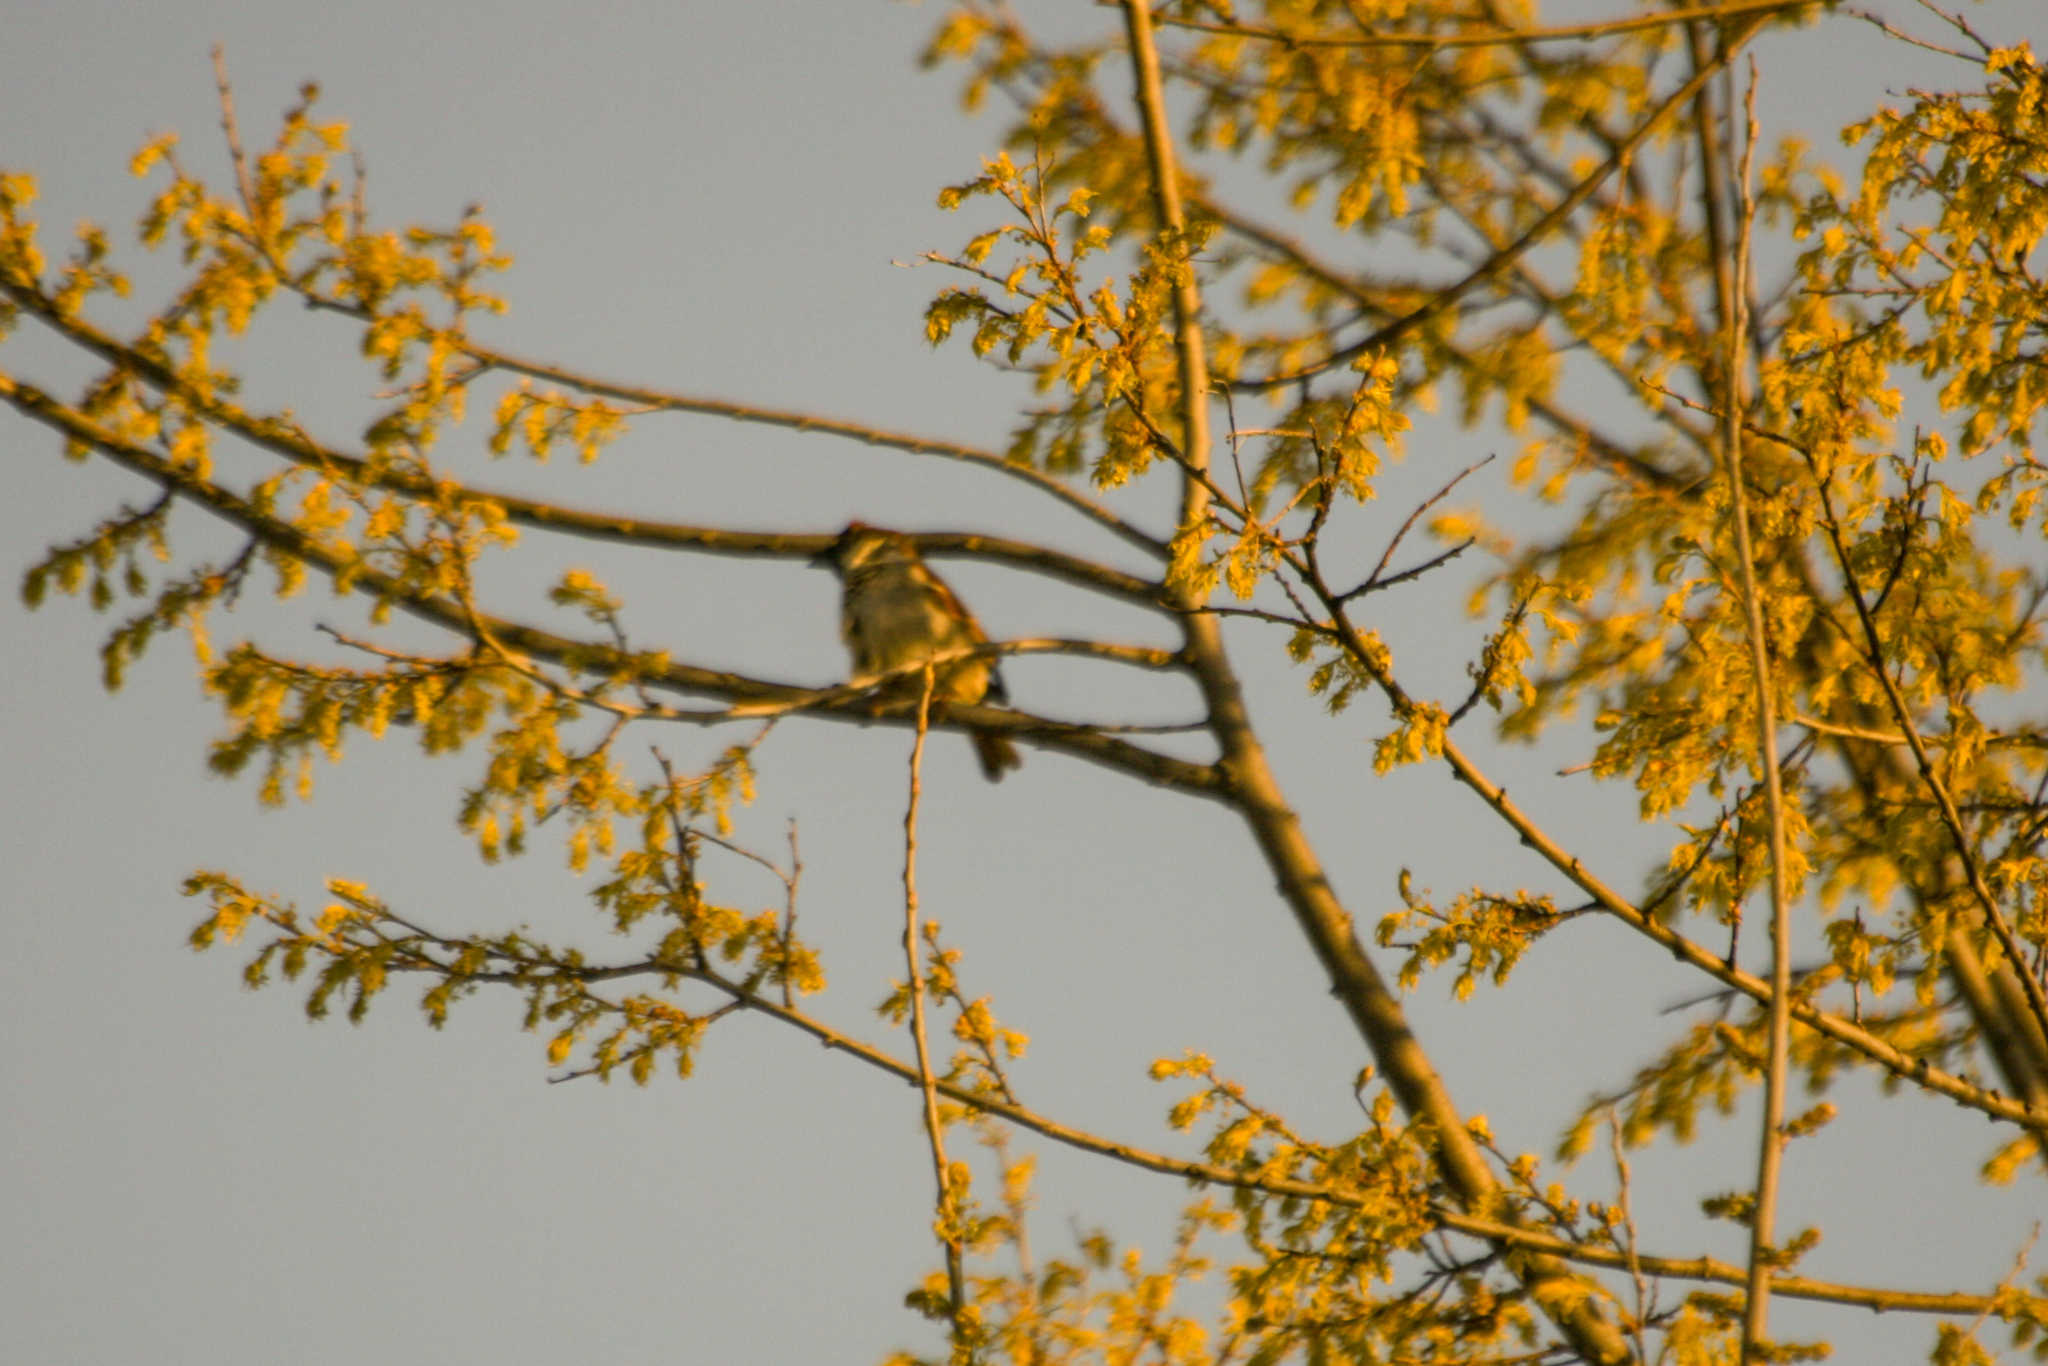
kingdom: Animalia
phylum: Chordata
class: Aves
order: Passeriformes
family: Passeridae
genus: Passer
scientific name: Passer domesticus
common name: House sparrow
